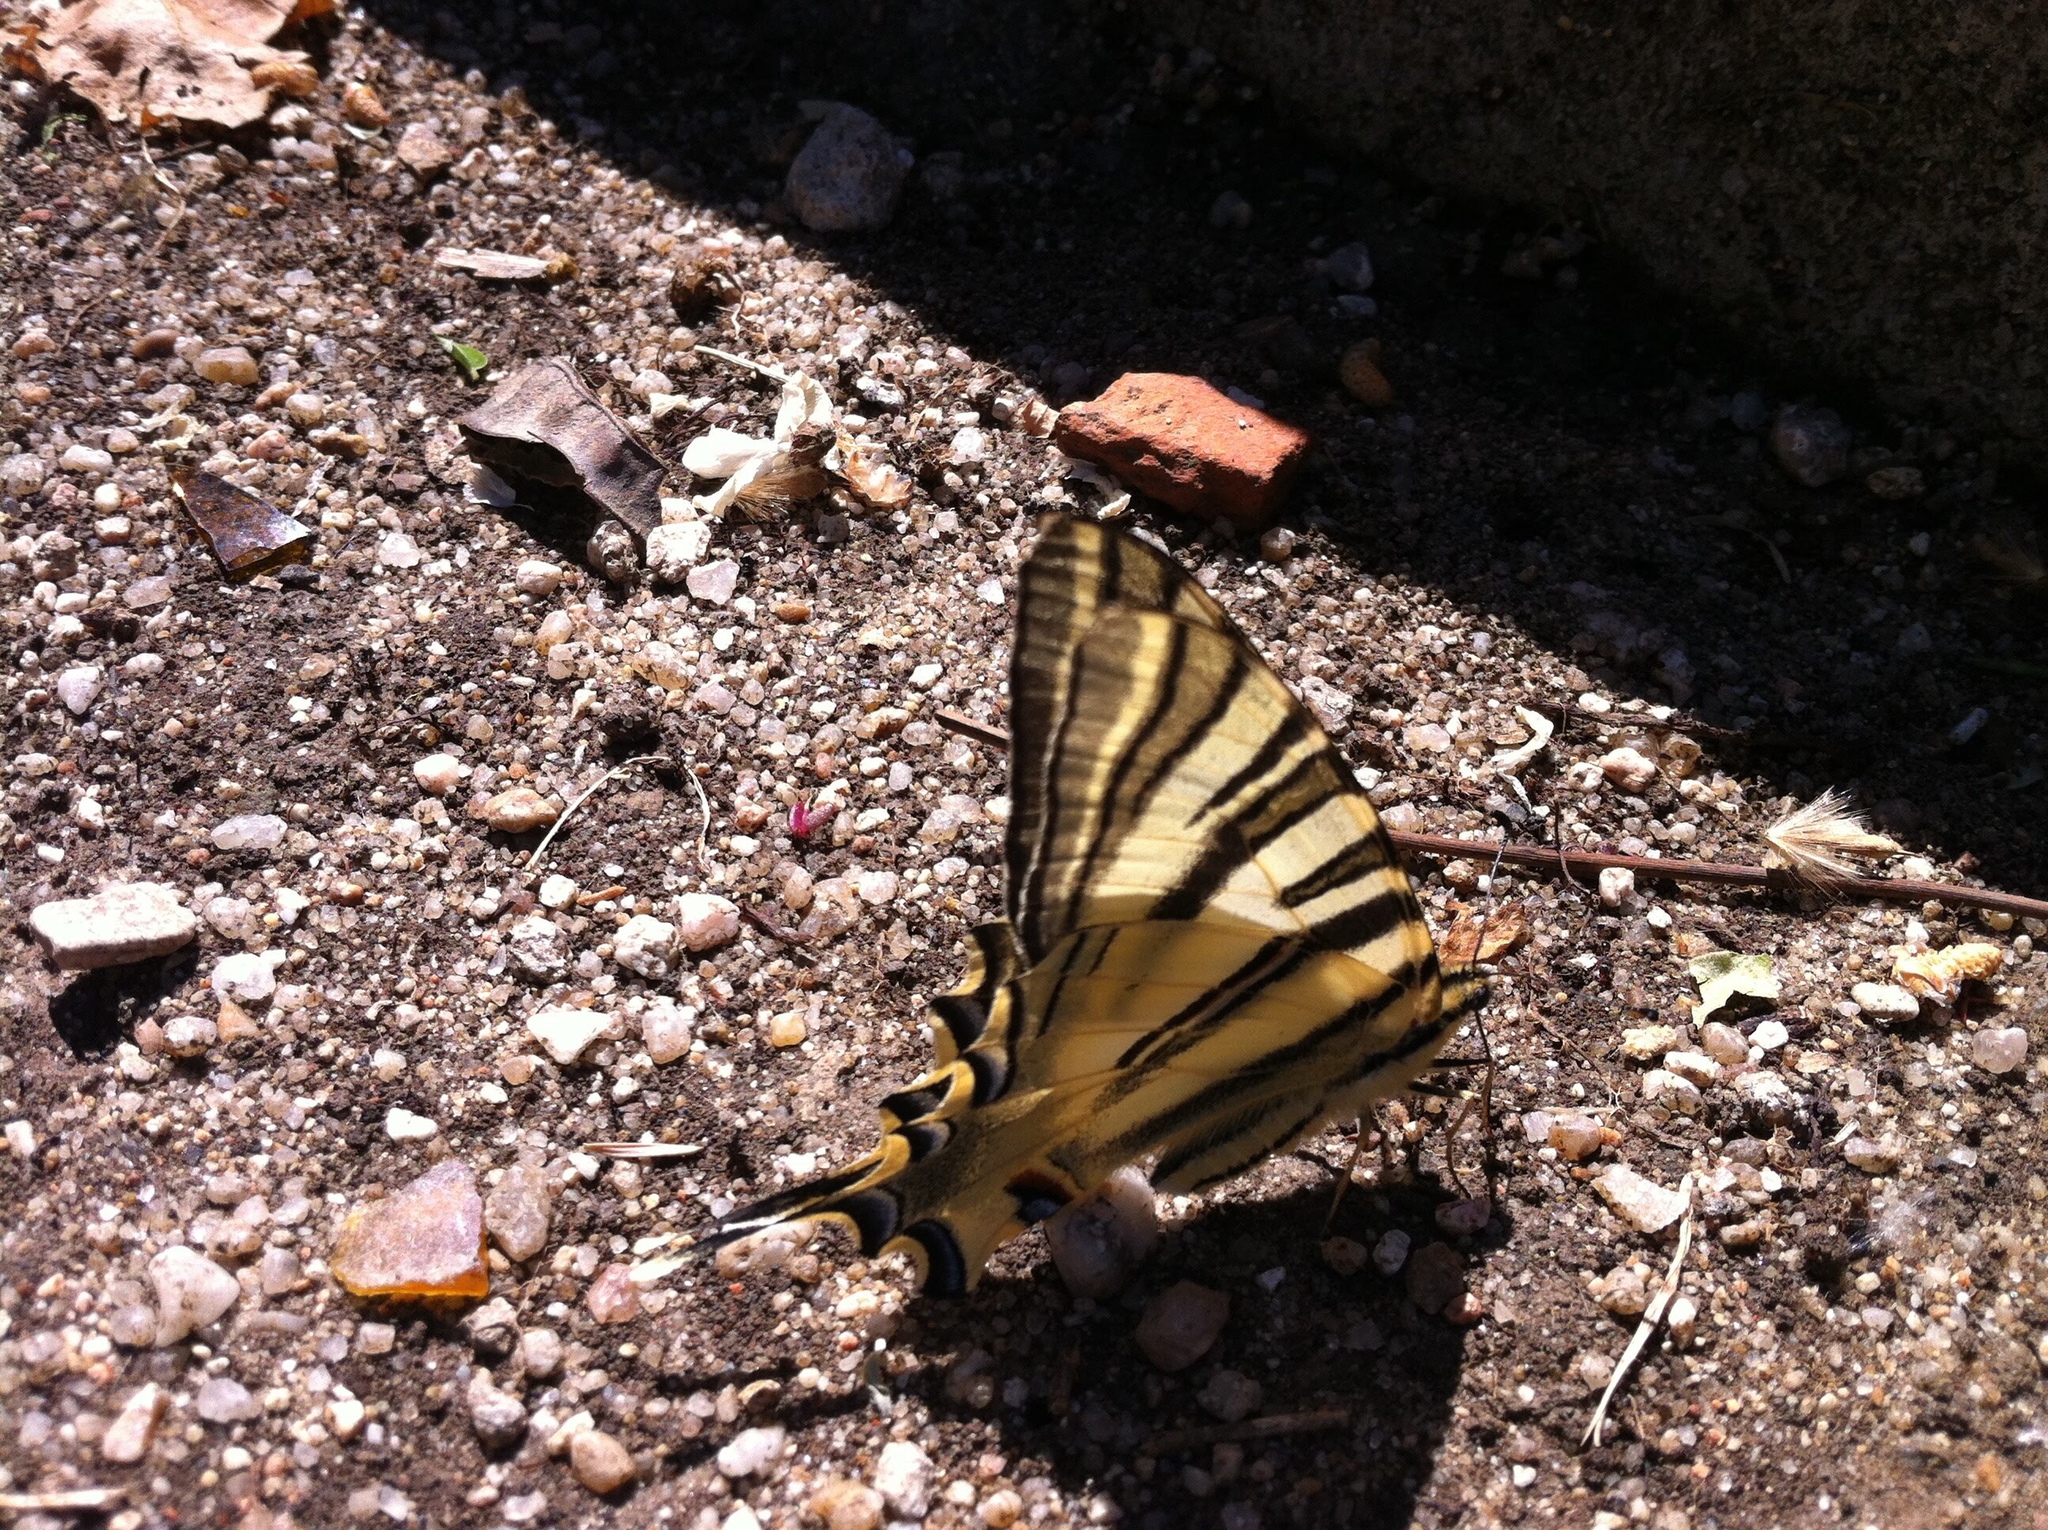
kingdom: Animalia
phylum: Arthropoda
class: Insecta
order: Lepidoptera
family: Papilionidae
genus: Iphiclides
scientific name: Iphiclides feisthamelii
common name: Iberian scarce swallowtail
